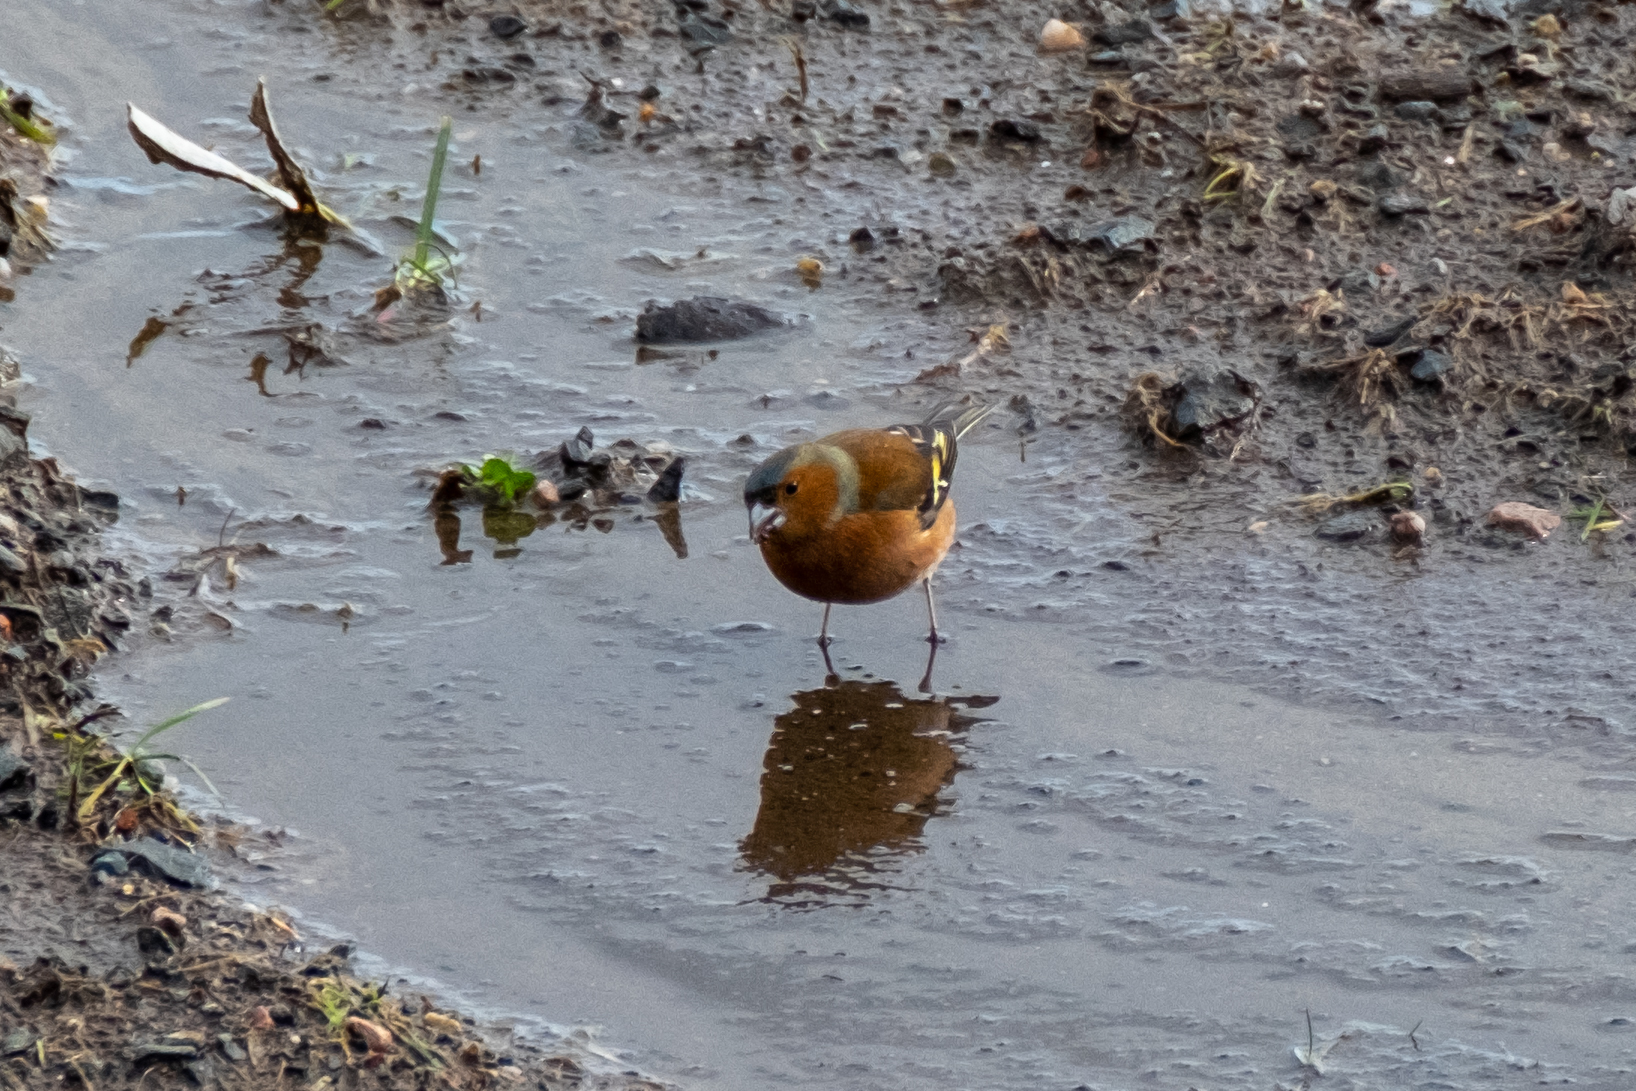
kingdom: Animalia
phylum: Chordata
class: Aves
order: Passeriformes
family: Fringillidae
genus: Fringilla
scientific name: Fringilla coelebs
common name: Common chaffinch
